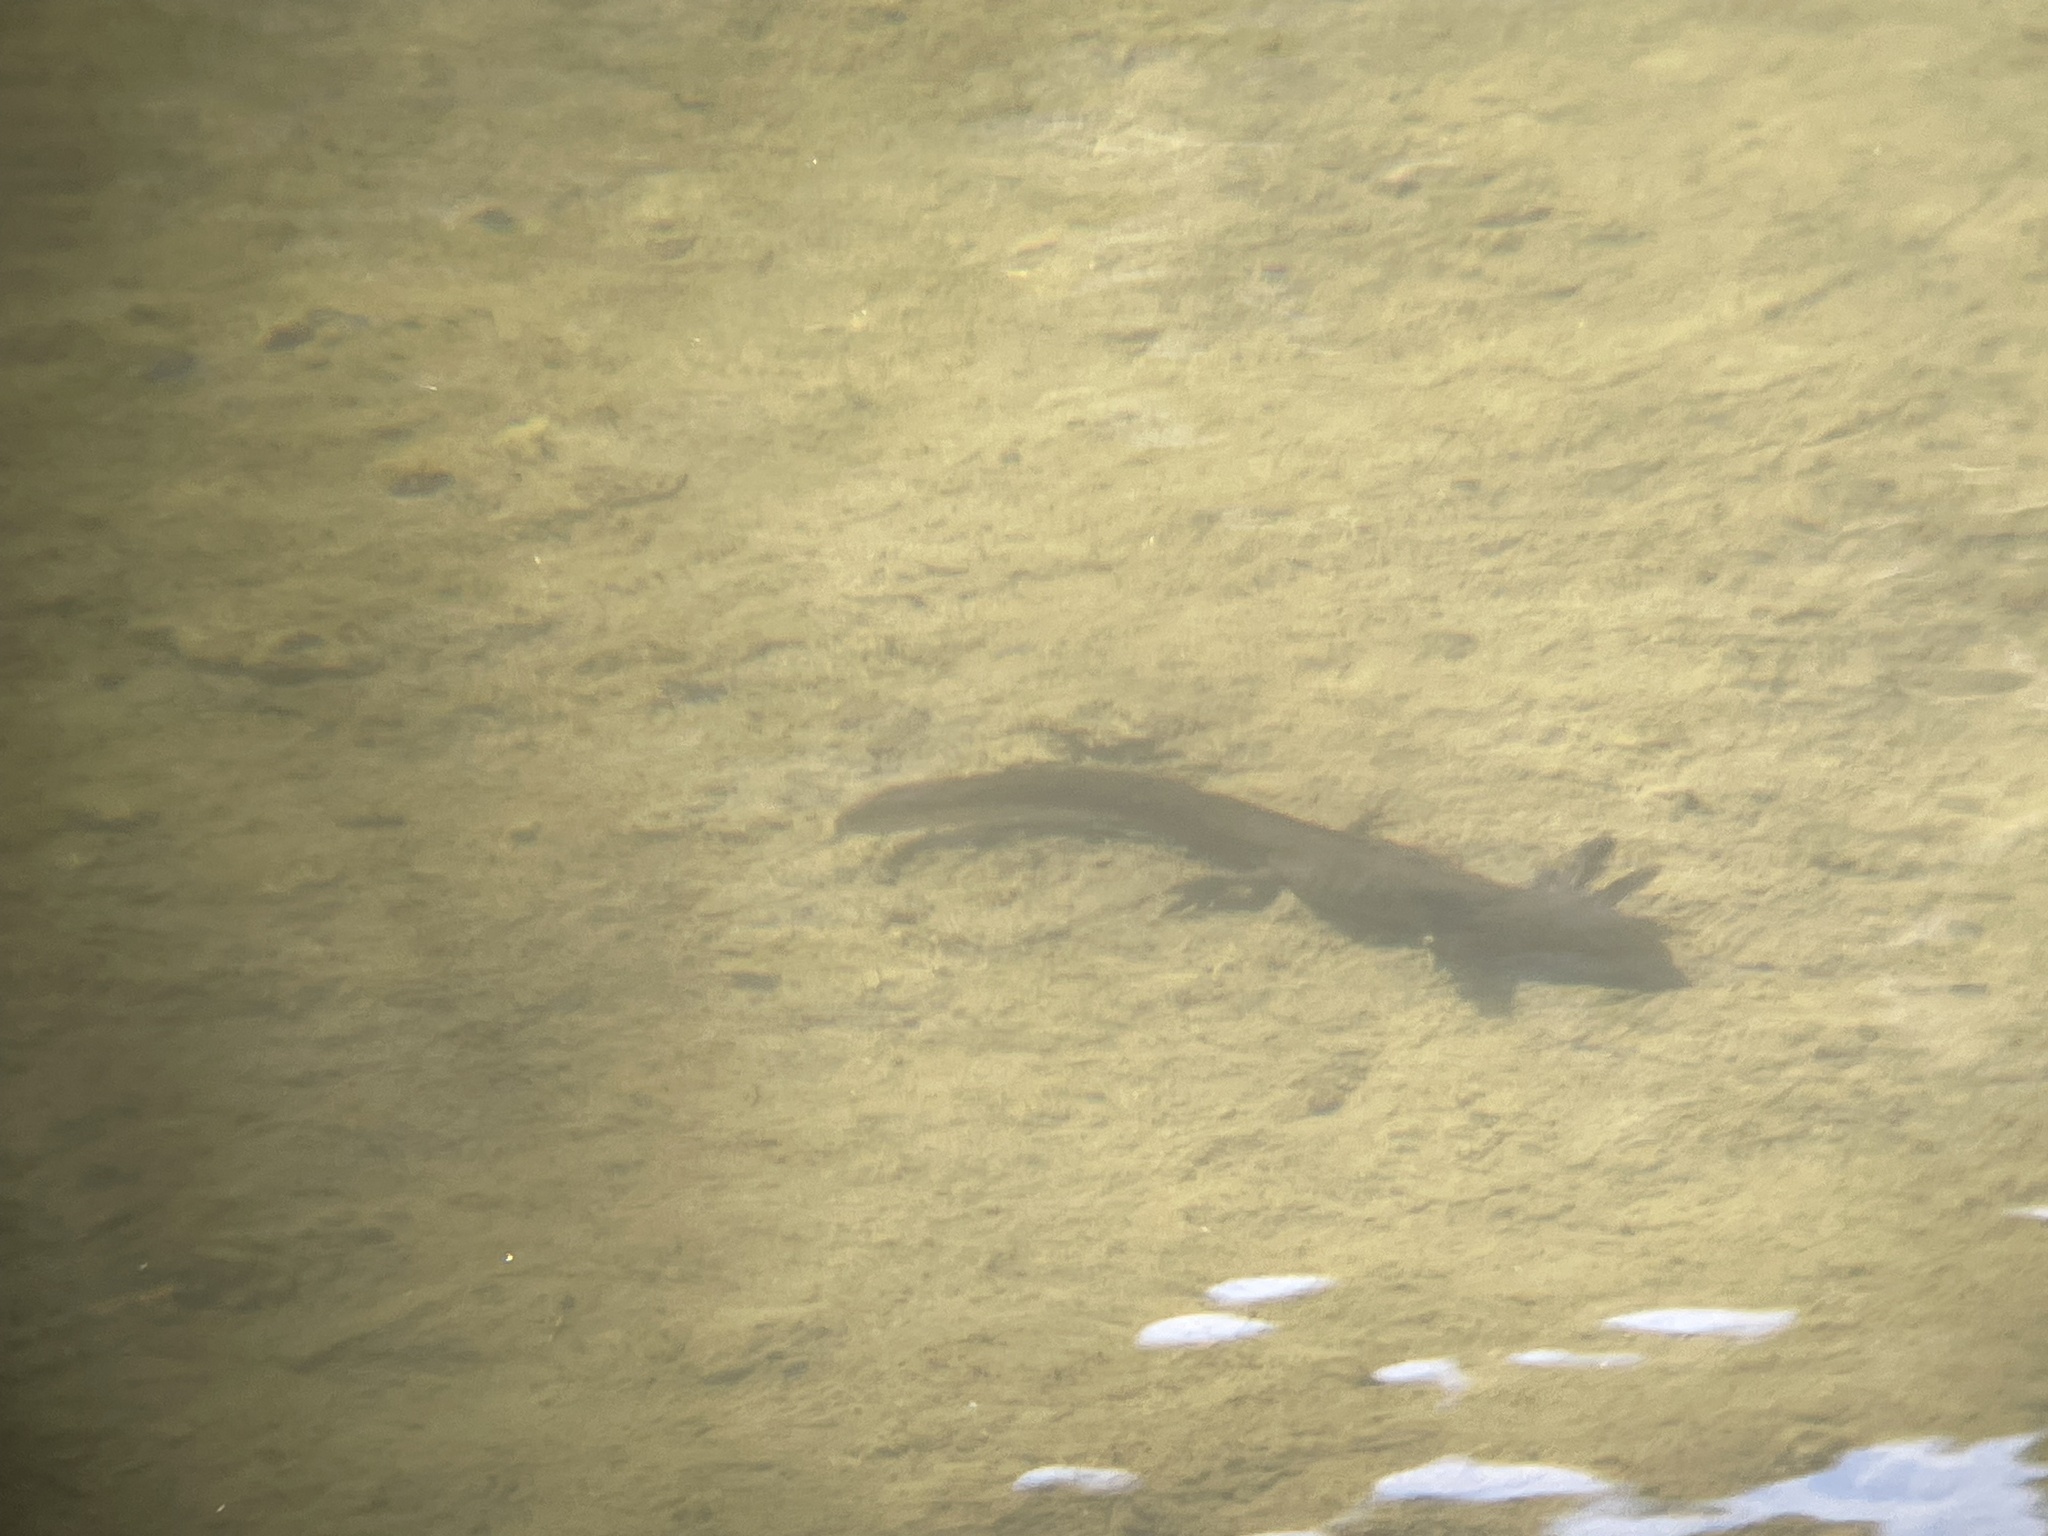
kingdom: Animalia
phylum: Chordata
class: Amphibia
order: Caudata
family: Ambystomatidae
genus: Ambystoma
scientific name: Ambystoma mavortium
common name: Western tiger salamander
